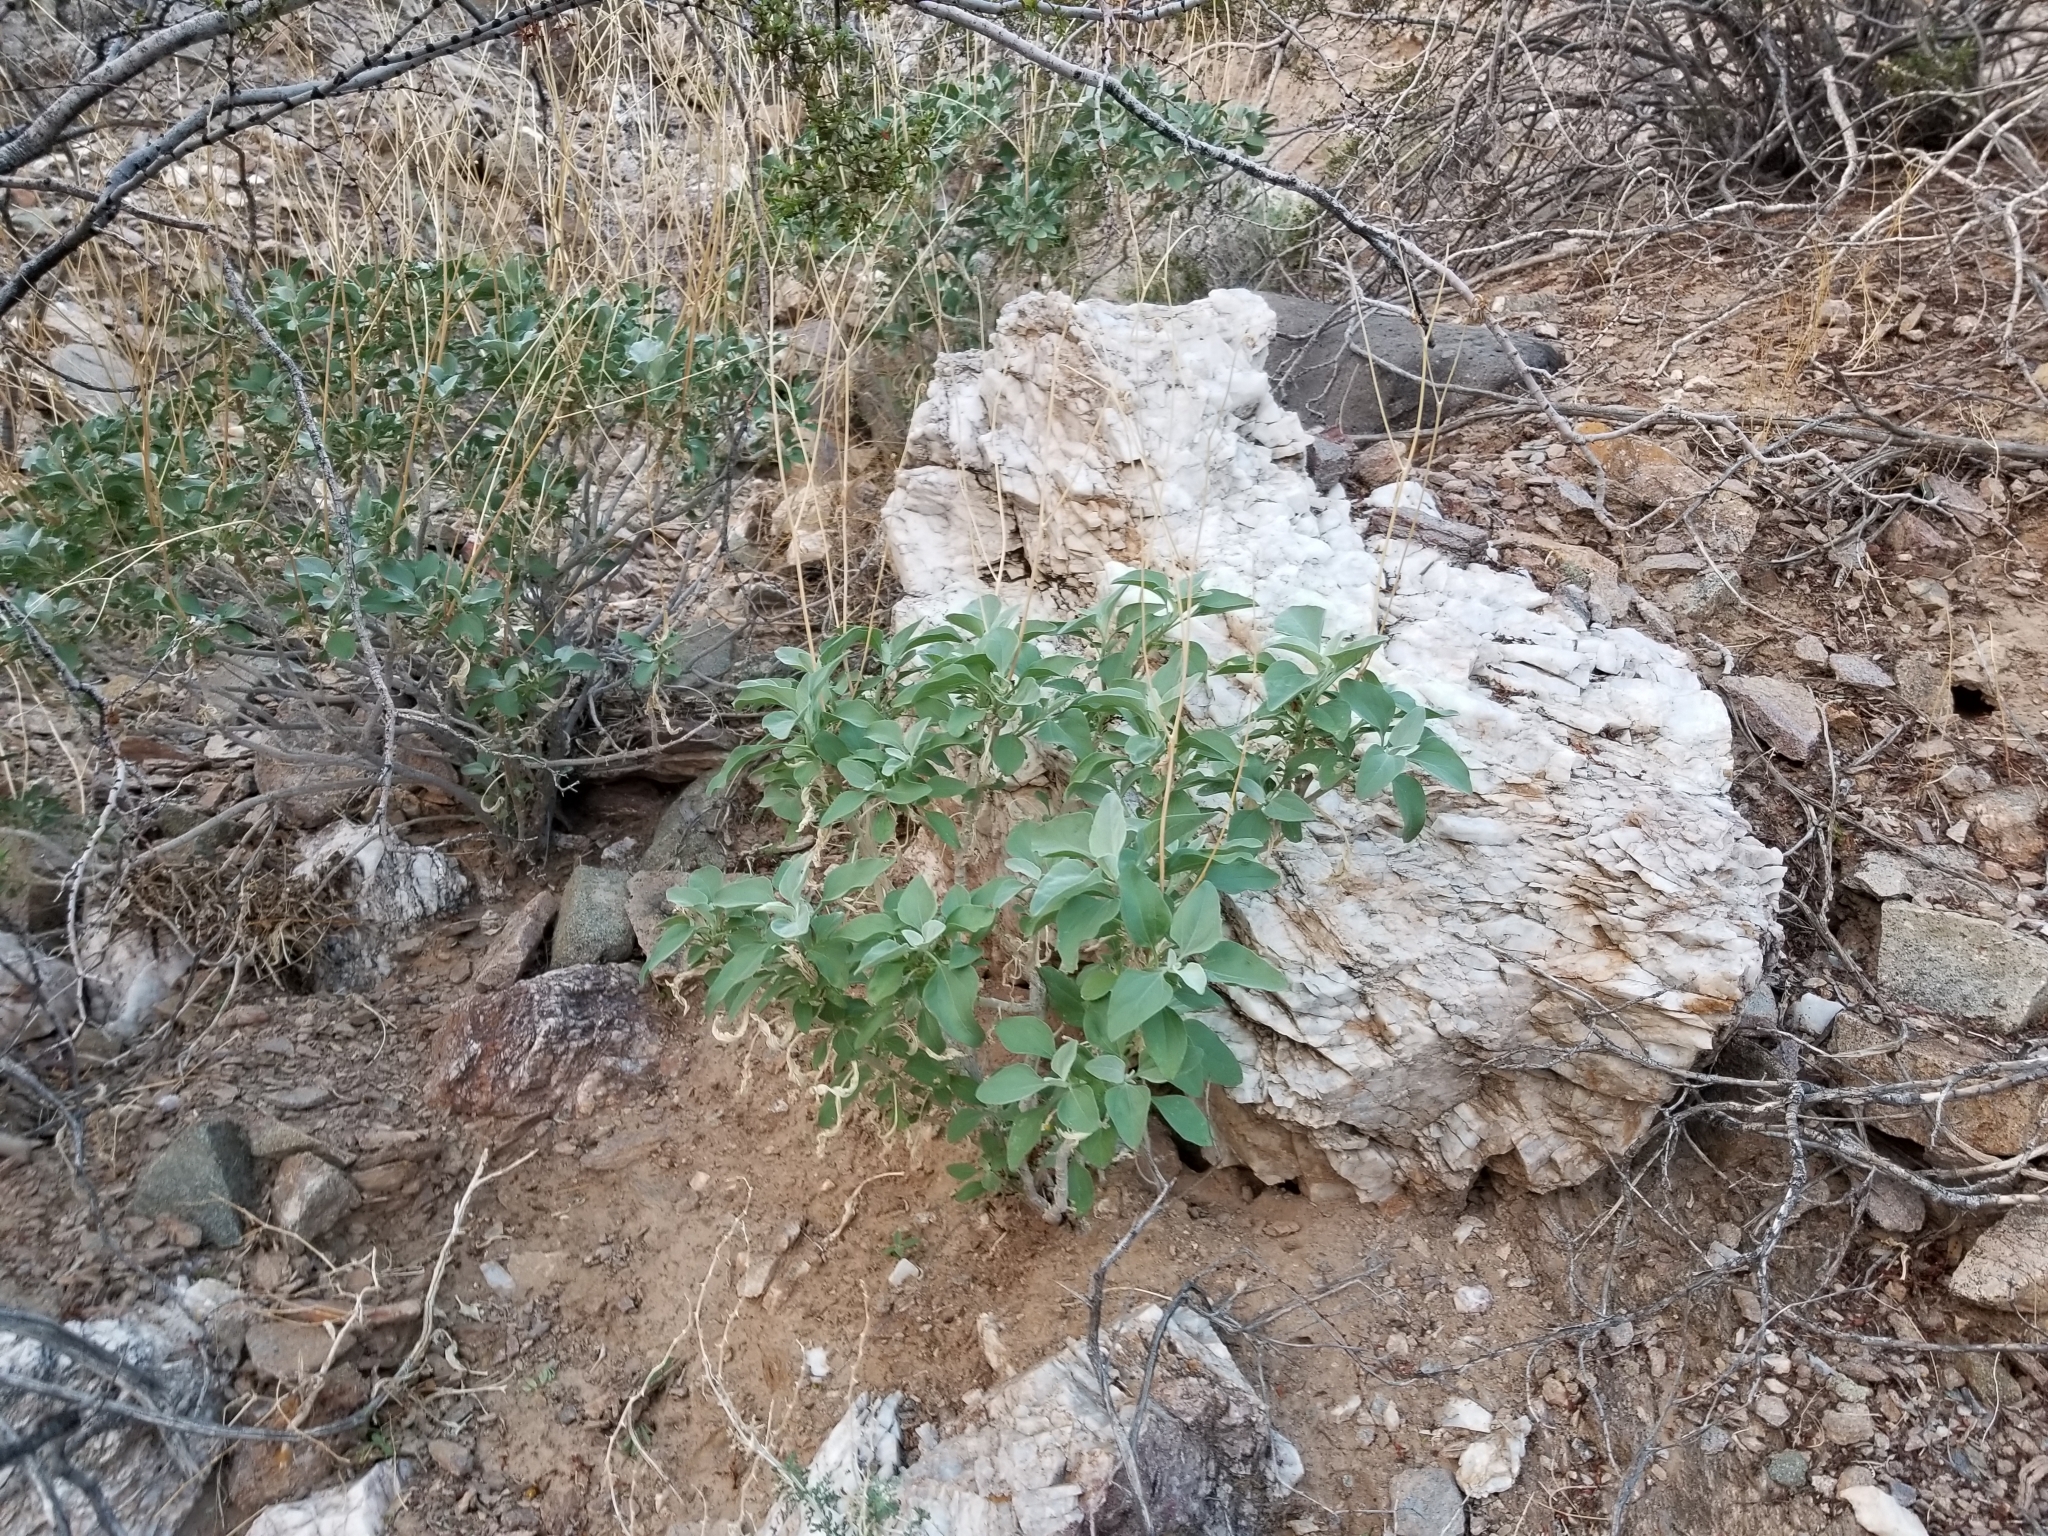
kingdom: Plantae
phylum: Tracheophyta
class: Magnoliopsida
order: Asterales
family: Asteraceae
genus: Encelia
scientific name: Encelia farinosa
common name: Brittlebush
